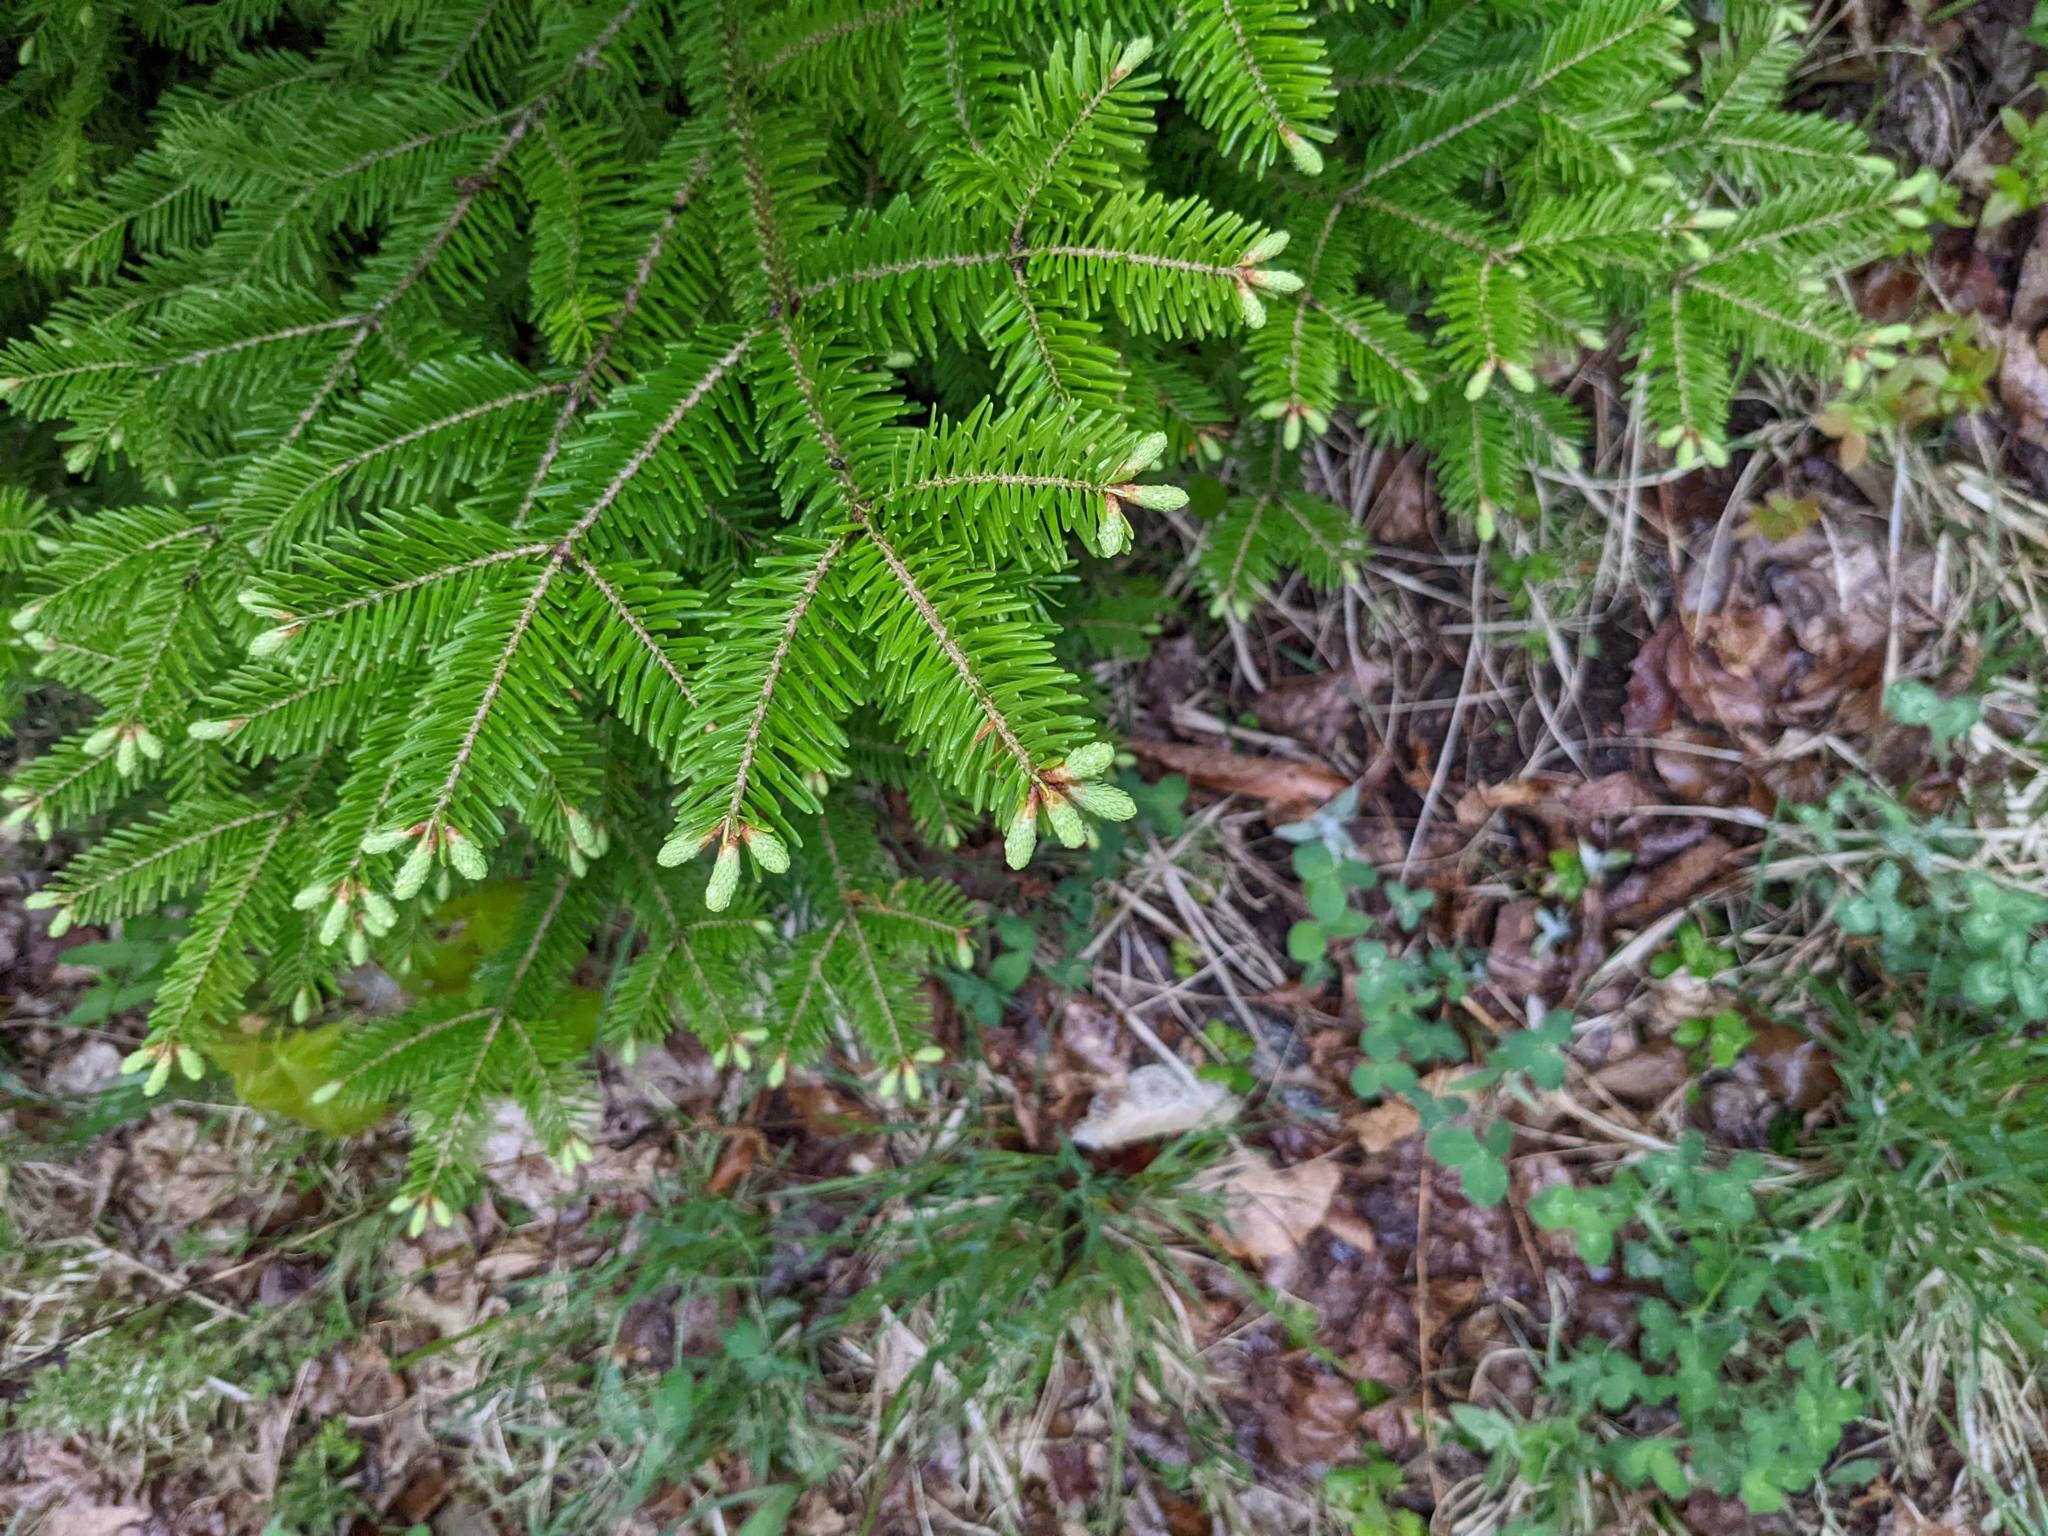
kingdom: Plantae
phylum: Tracheophyta
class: Pinopsida
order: Pinales
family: Pinaceae
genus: Abies
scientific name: Abies balsamea
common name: Balsam fir
